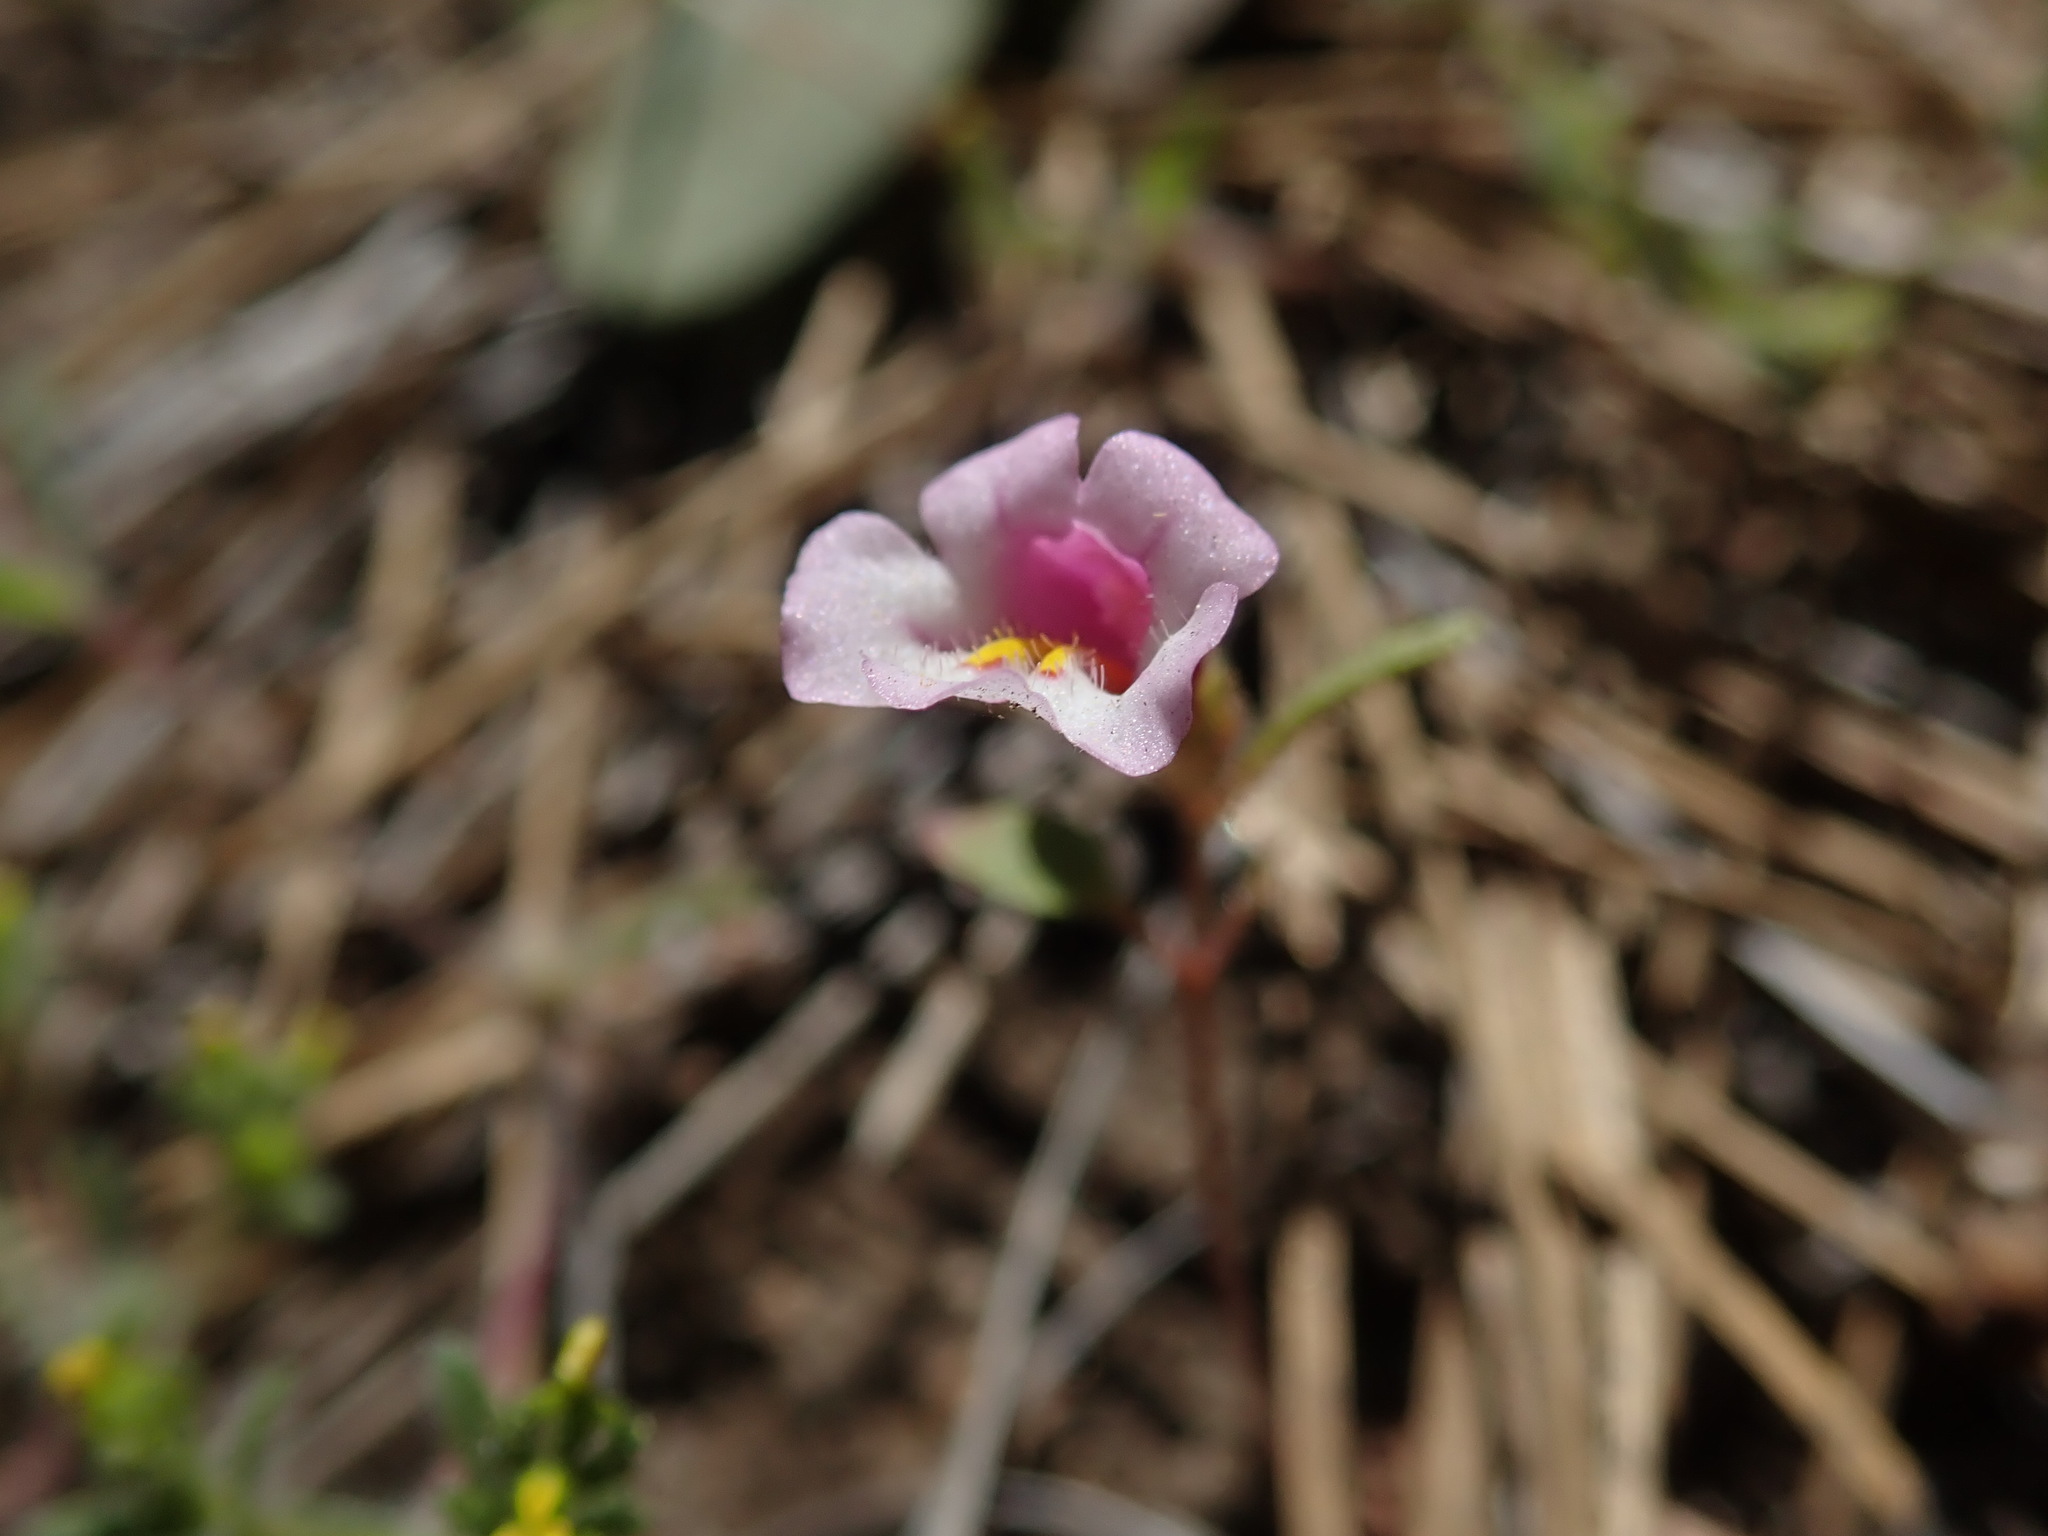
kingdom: Plantae
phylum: Tracheophyta
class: Magnoliopsida
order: Lamiales
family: Phrymaceae
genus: Diplacus
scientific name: Diplacus torreyi
